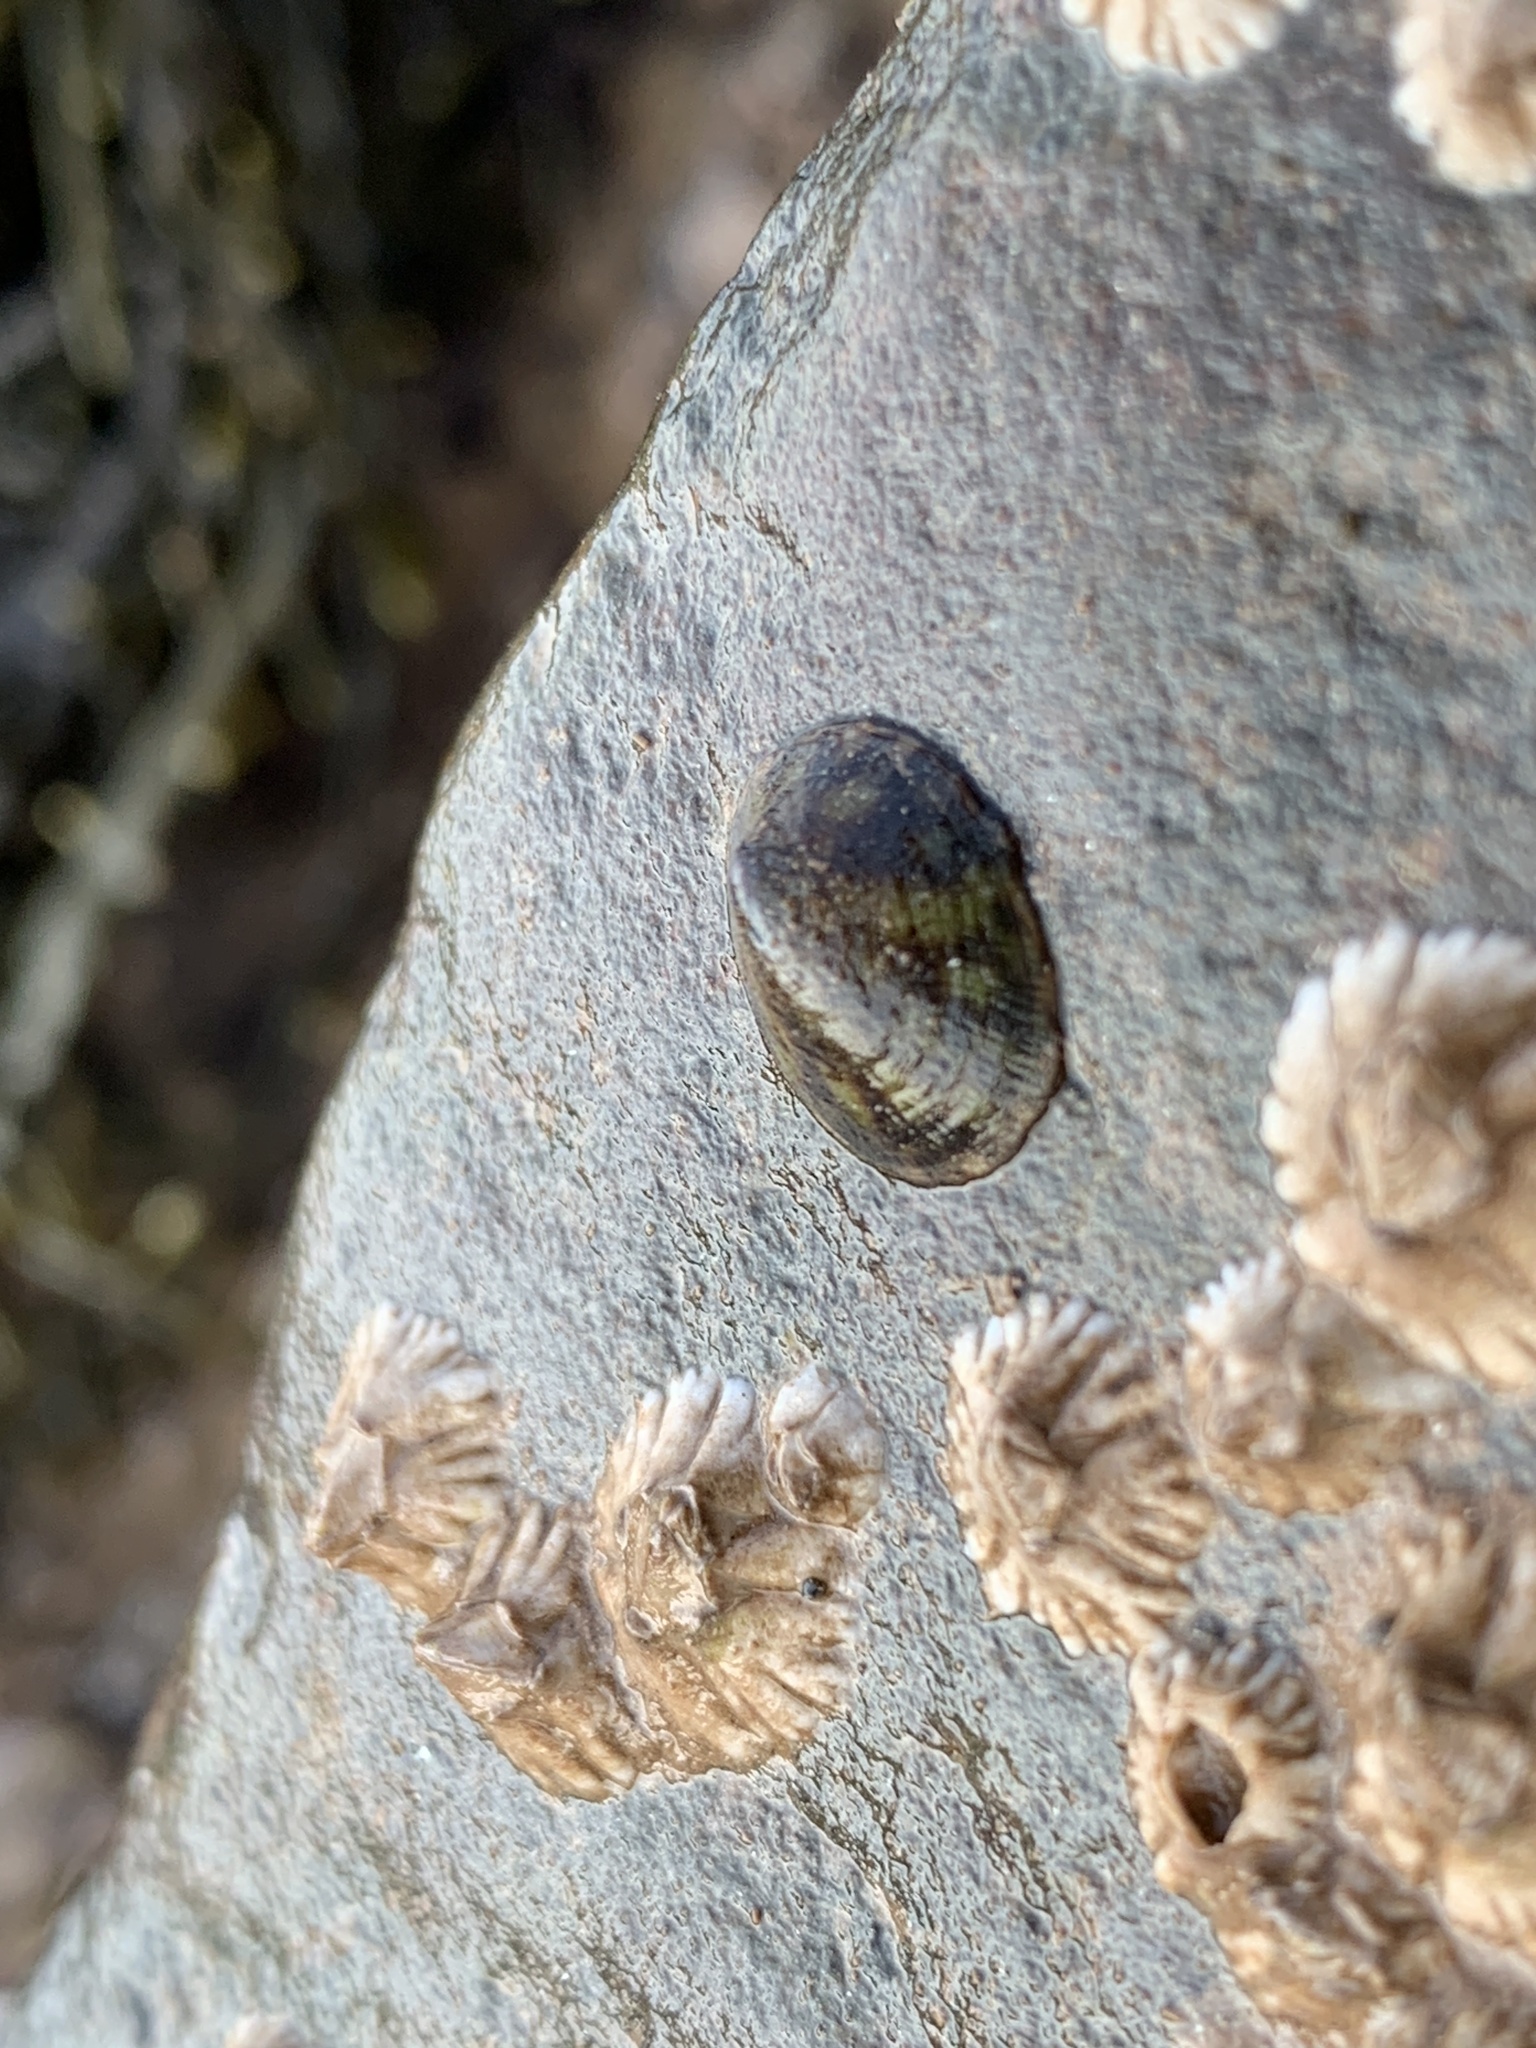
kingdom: Animalia
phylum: Mollusca
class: Gastropoda
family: Lottiidae
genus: Testudinalia
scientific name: Testudinalia testudinalis
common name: Common tortoiseshell limpet
